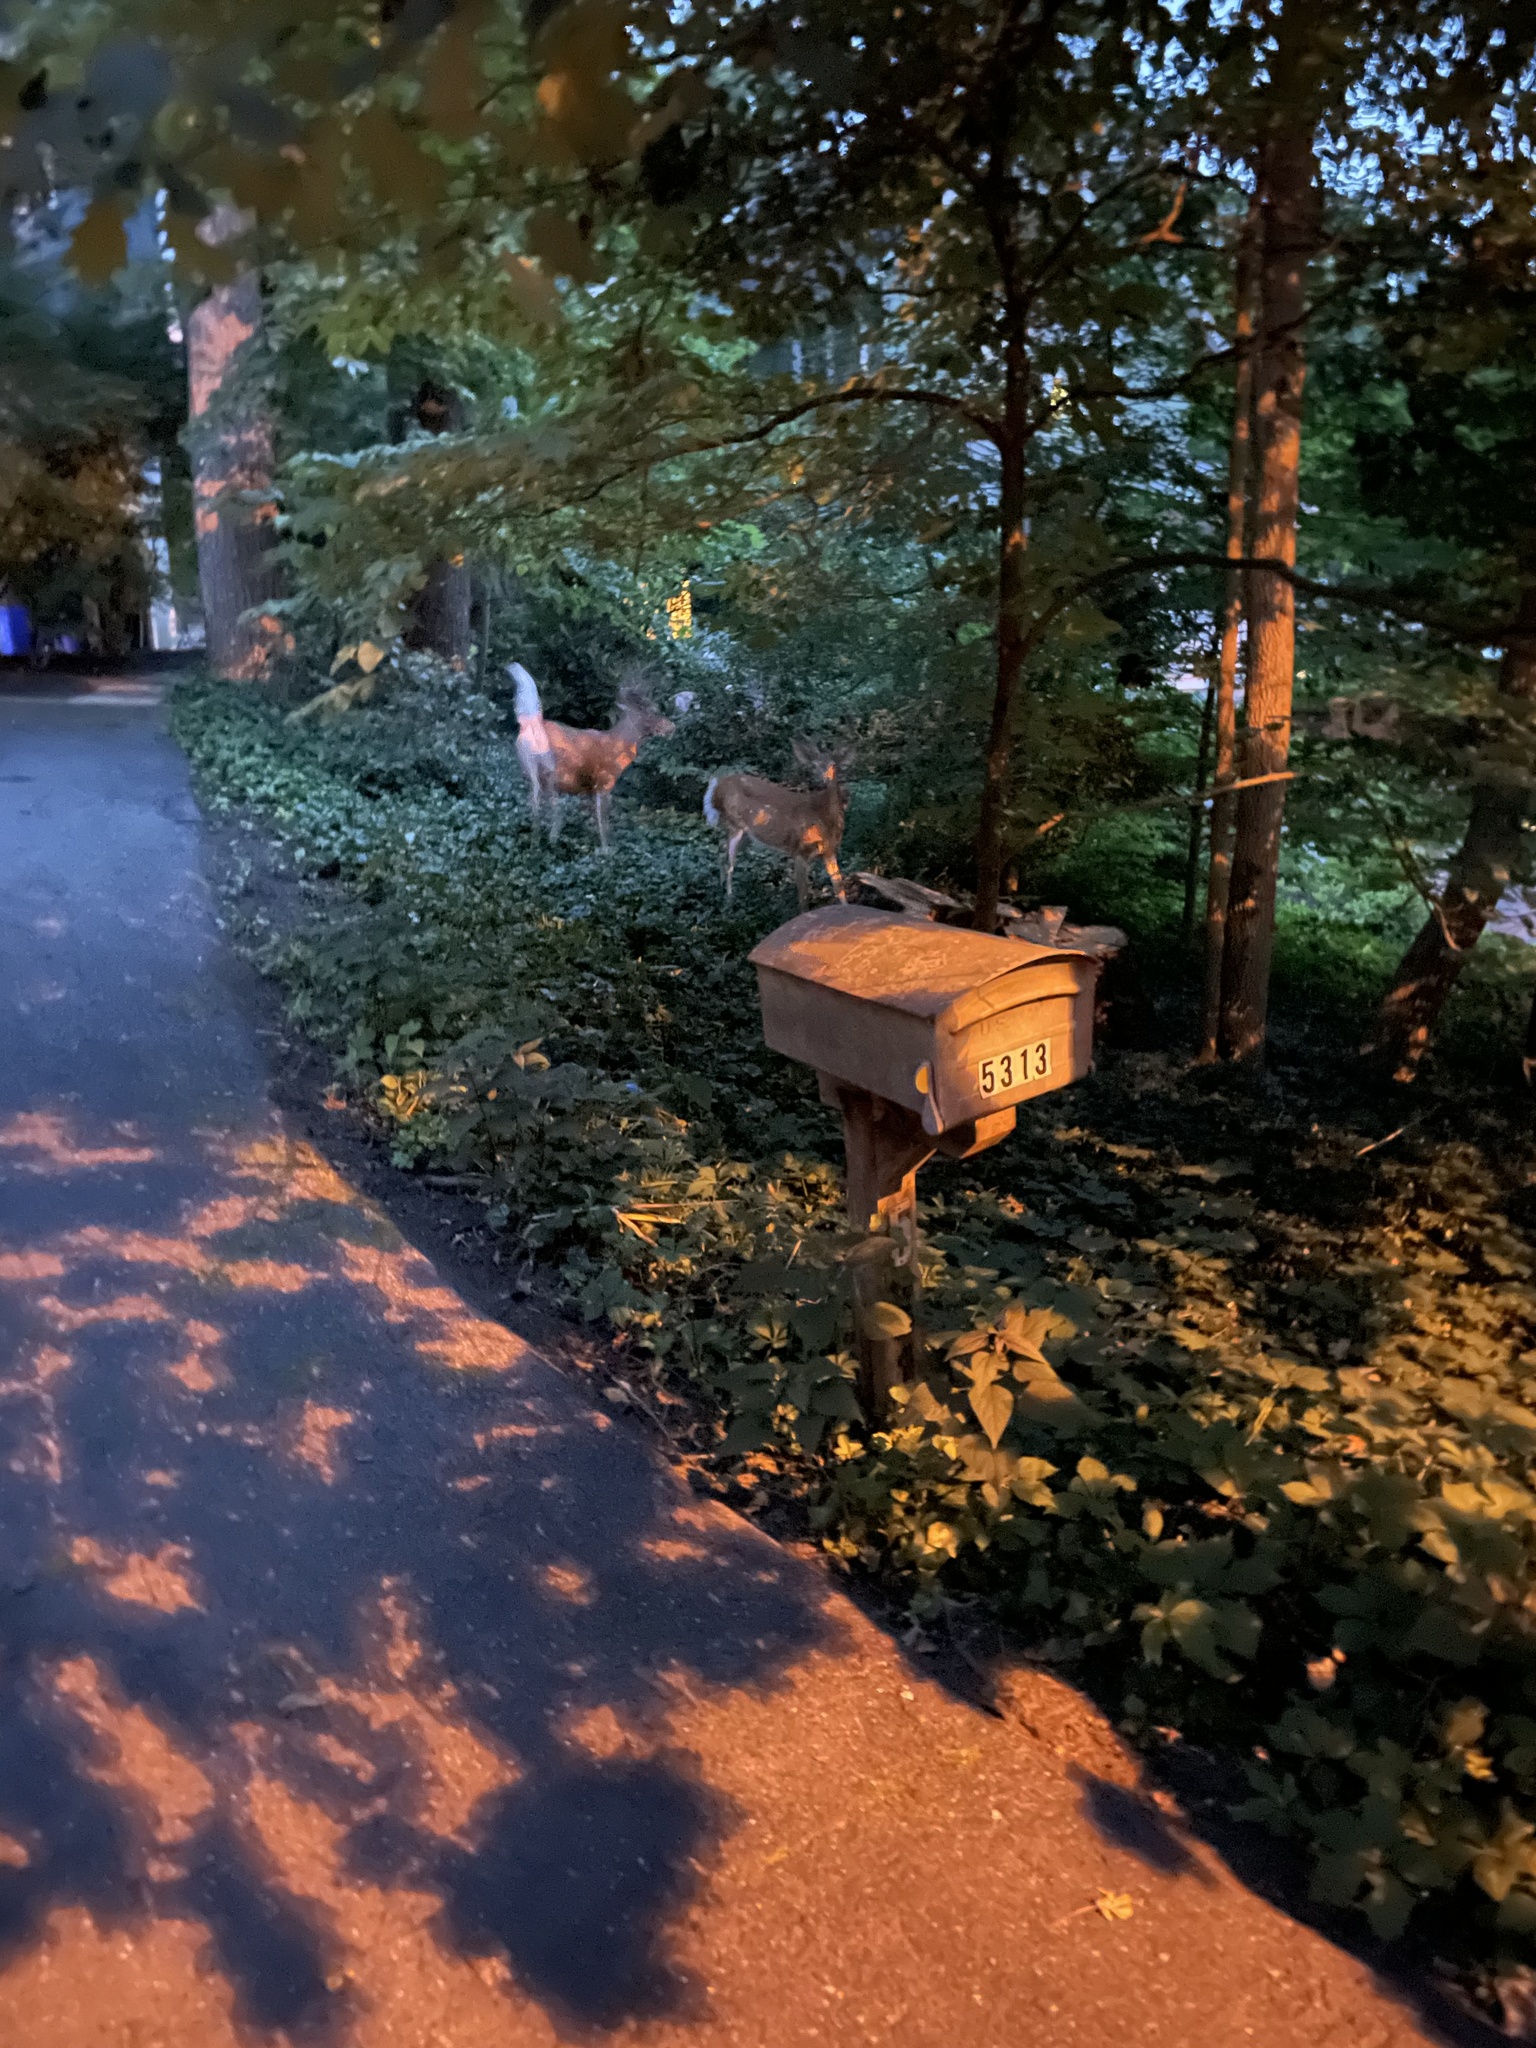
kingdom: Animalia
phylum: Chordata
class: Mammalia
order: Artiodactyla
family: Cervidae
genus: Odocoileus
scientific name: Odocoileus virginianus
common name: White-tailed deer
